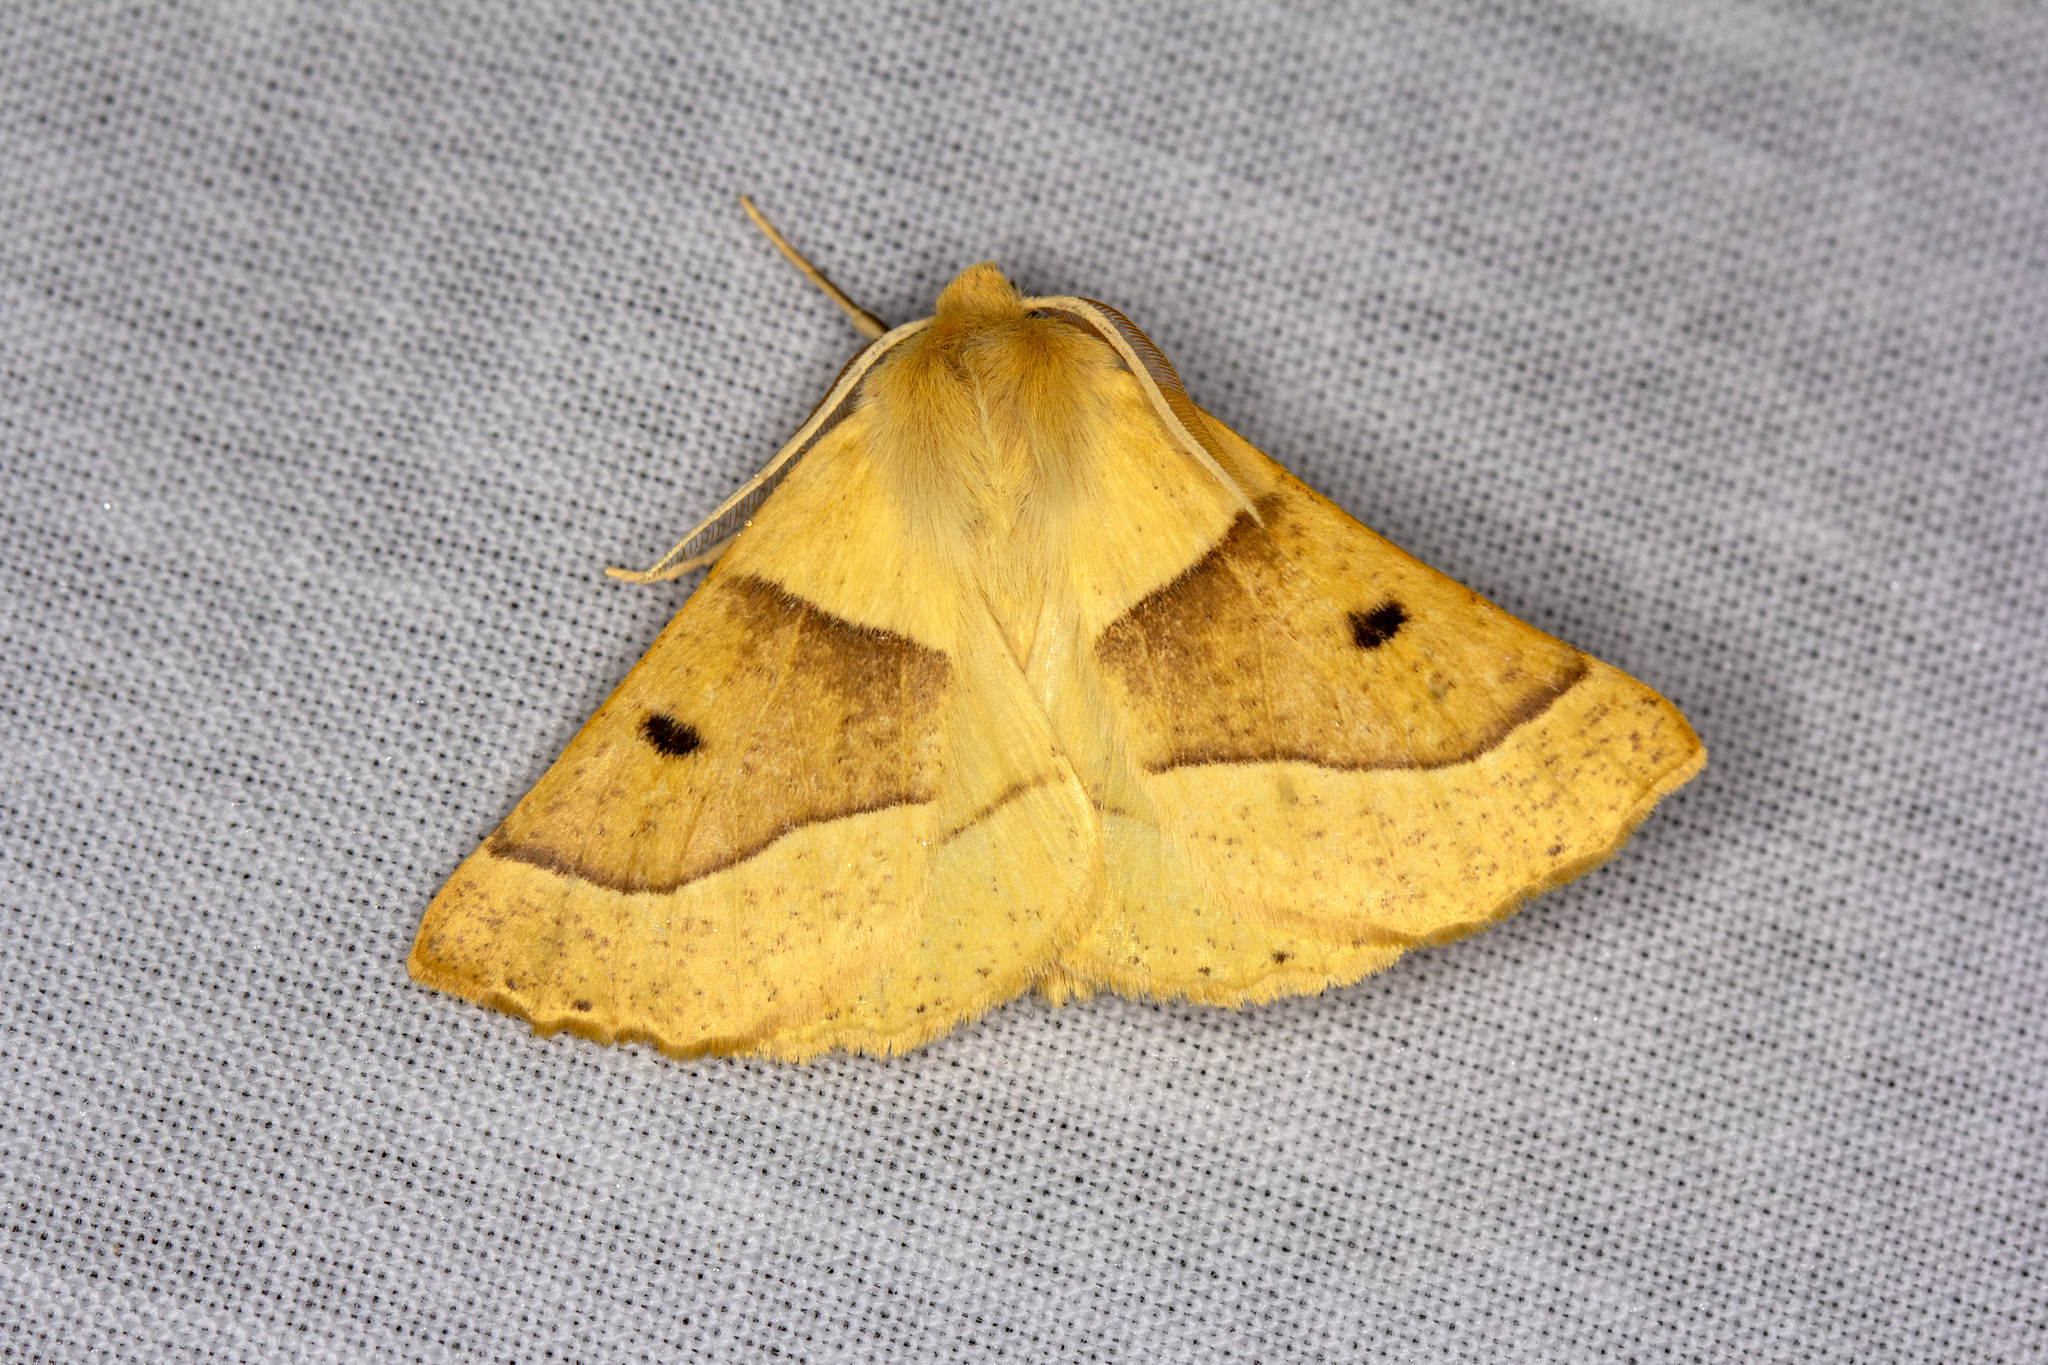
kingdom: Animalia
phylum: Arthropoda
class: Insecta
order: Lepidoptera
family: Geometridae
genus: Crocallis
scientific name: Crocallis elinguaria
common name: Scalloped oak
